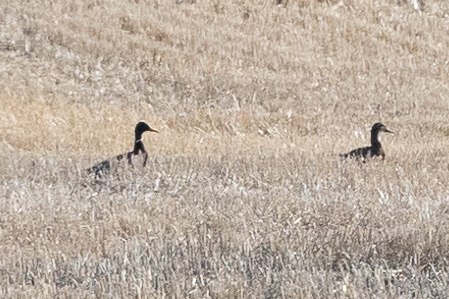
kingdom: Animalia
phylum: Chordata
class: Aves
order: Anseriformes
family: Anatidae
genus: Anas
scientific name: Anas platyrhynchos
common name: Mallard
